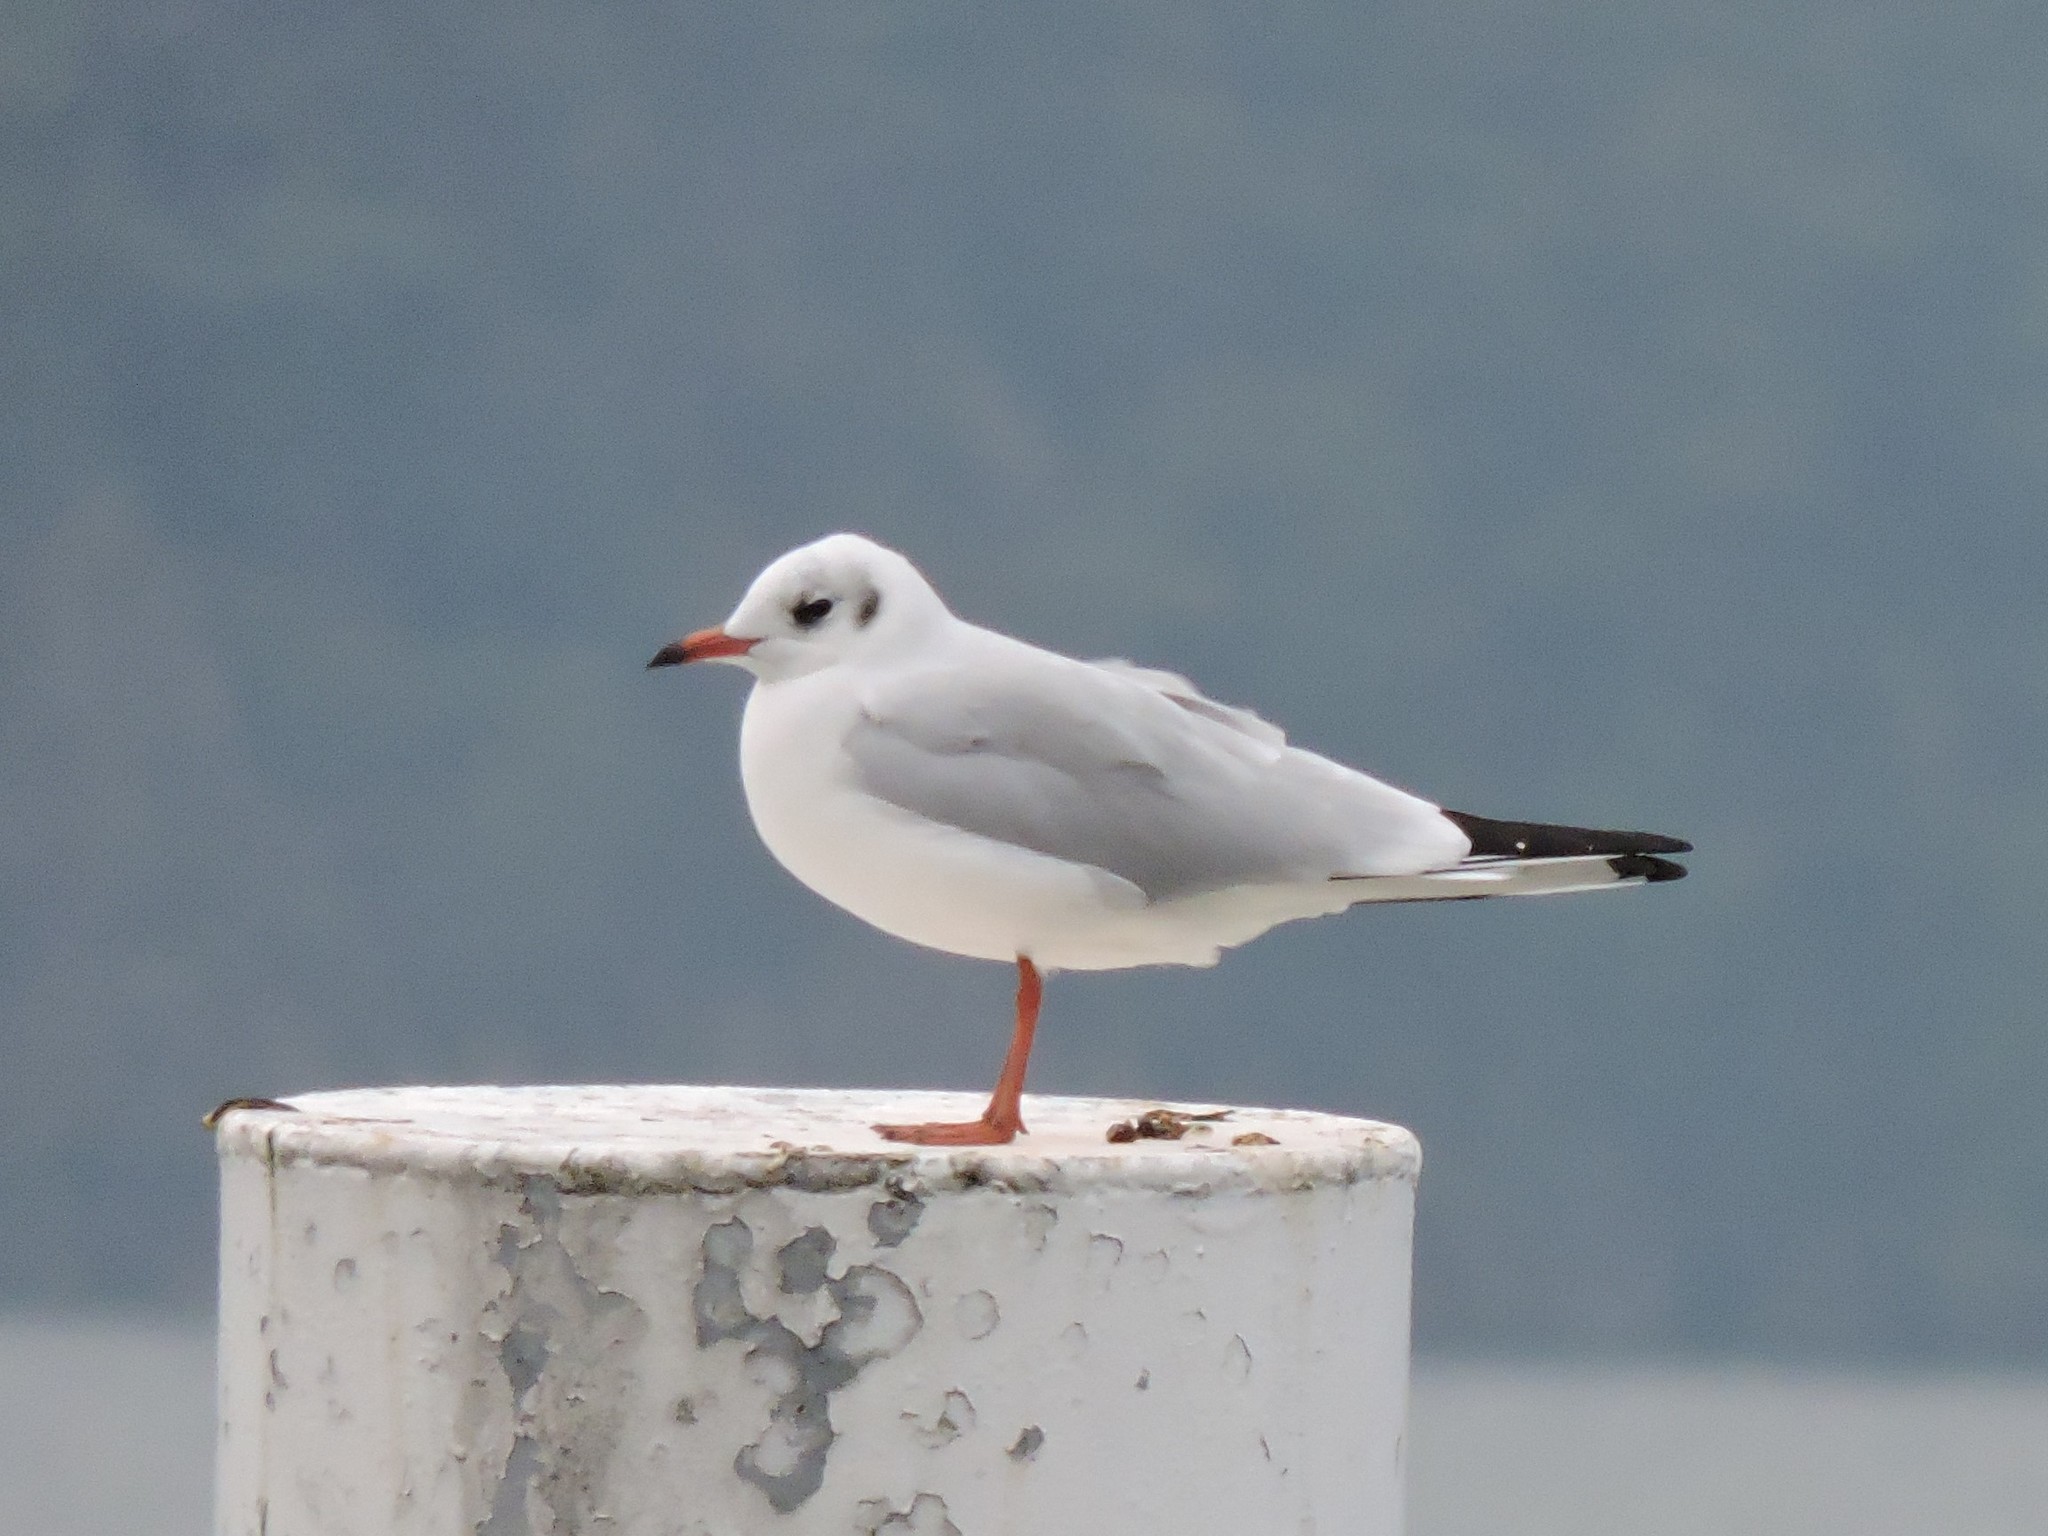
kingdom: Animalia
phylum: Chordata
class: Aves
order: Charadriiformes
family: Laridae
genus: Chroicocephalus
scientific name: Chroicocephalus ridibundus
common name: Black-headed gull
